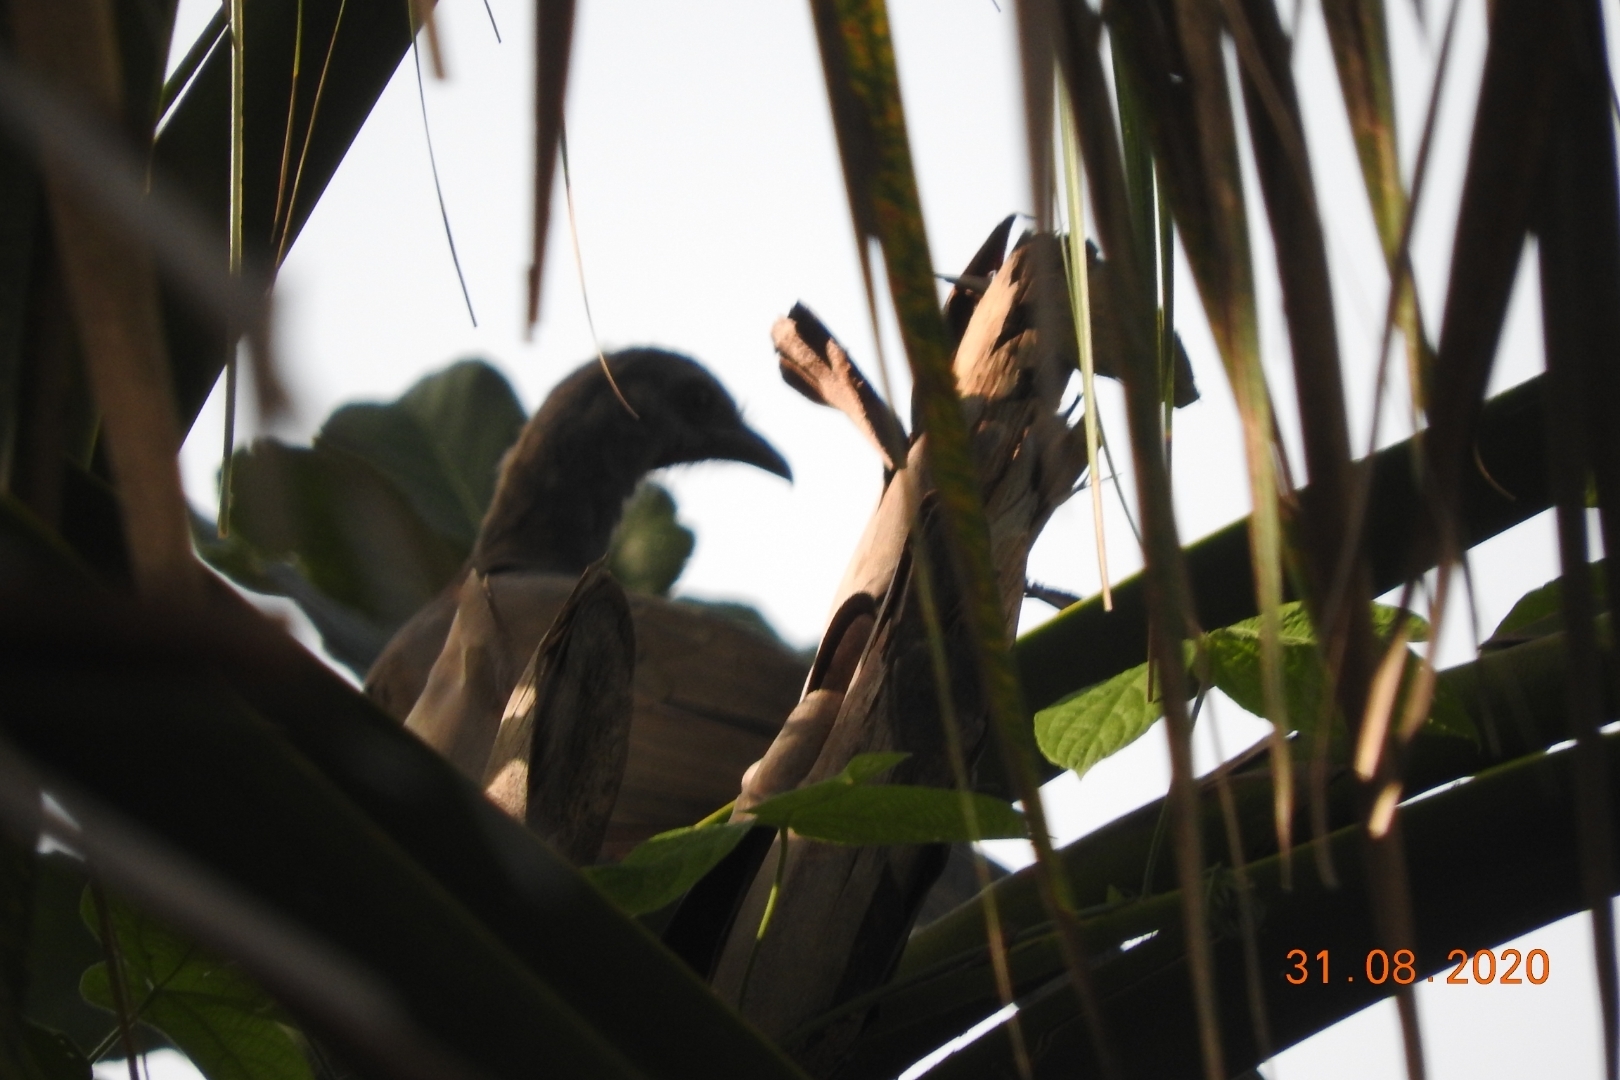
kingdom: Animalia
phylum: Chordata
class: Aves
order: Galliformes
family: Cracidae
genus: Ortalis
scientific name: Ortalis vetula
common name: Plain chachalaca
